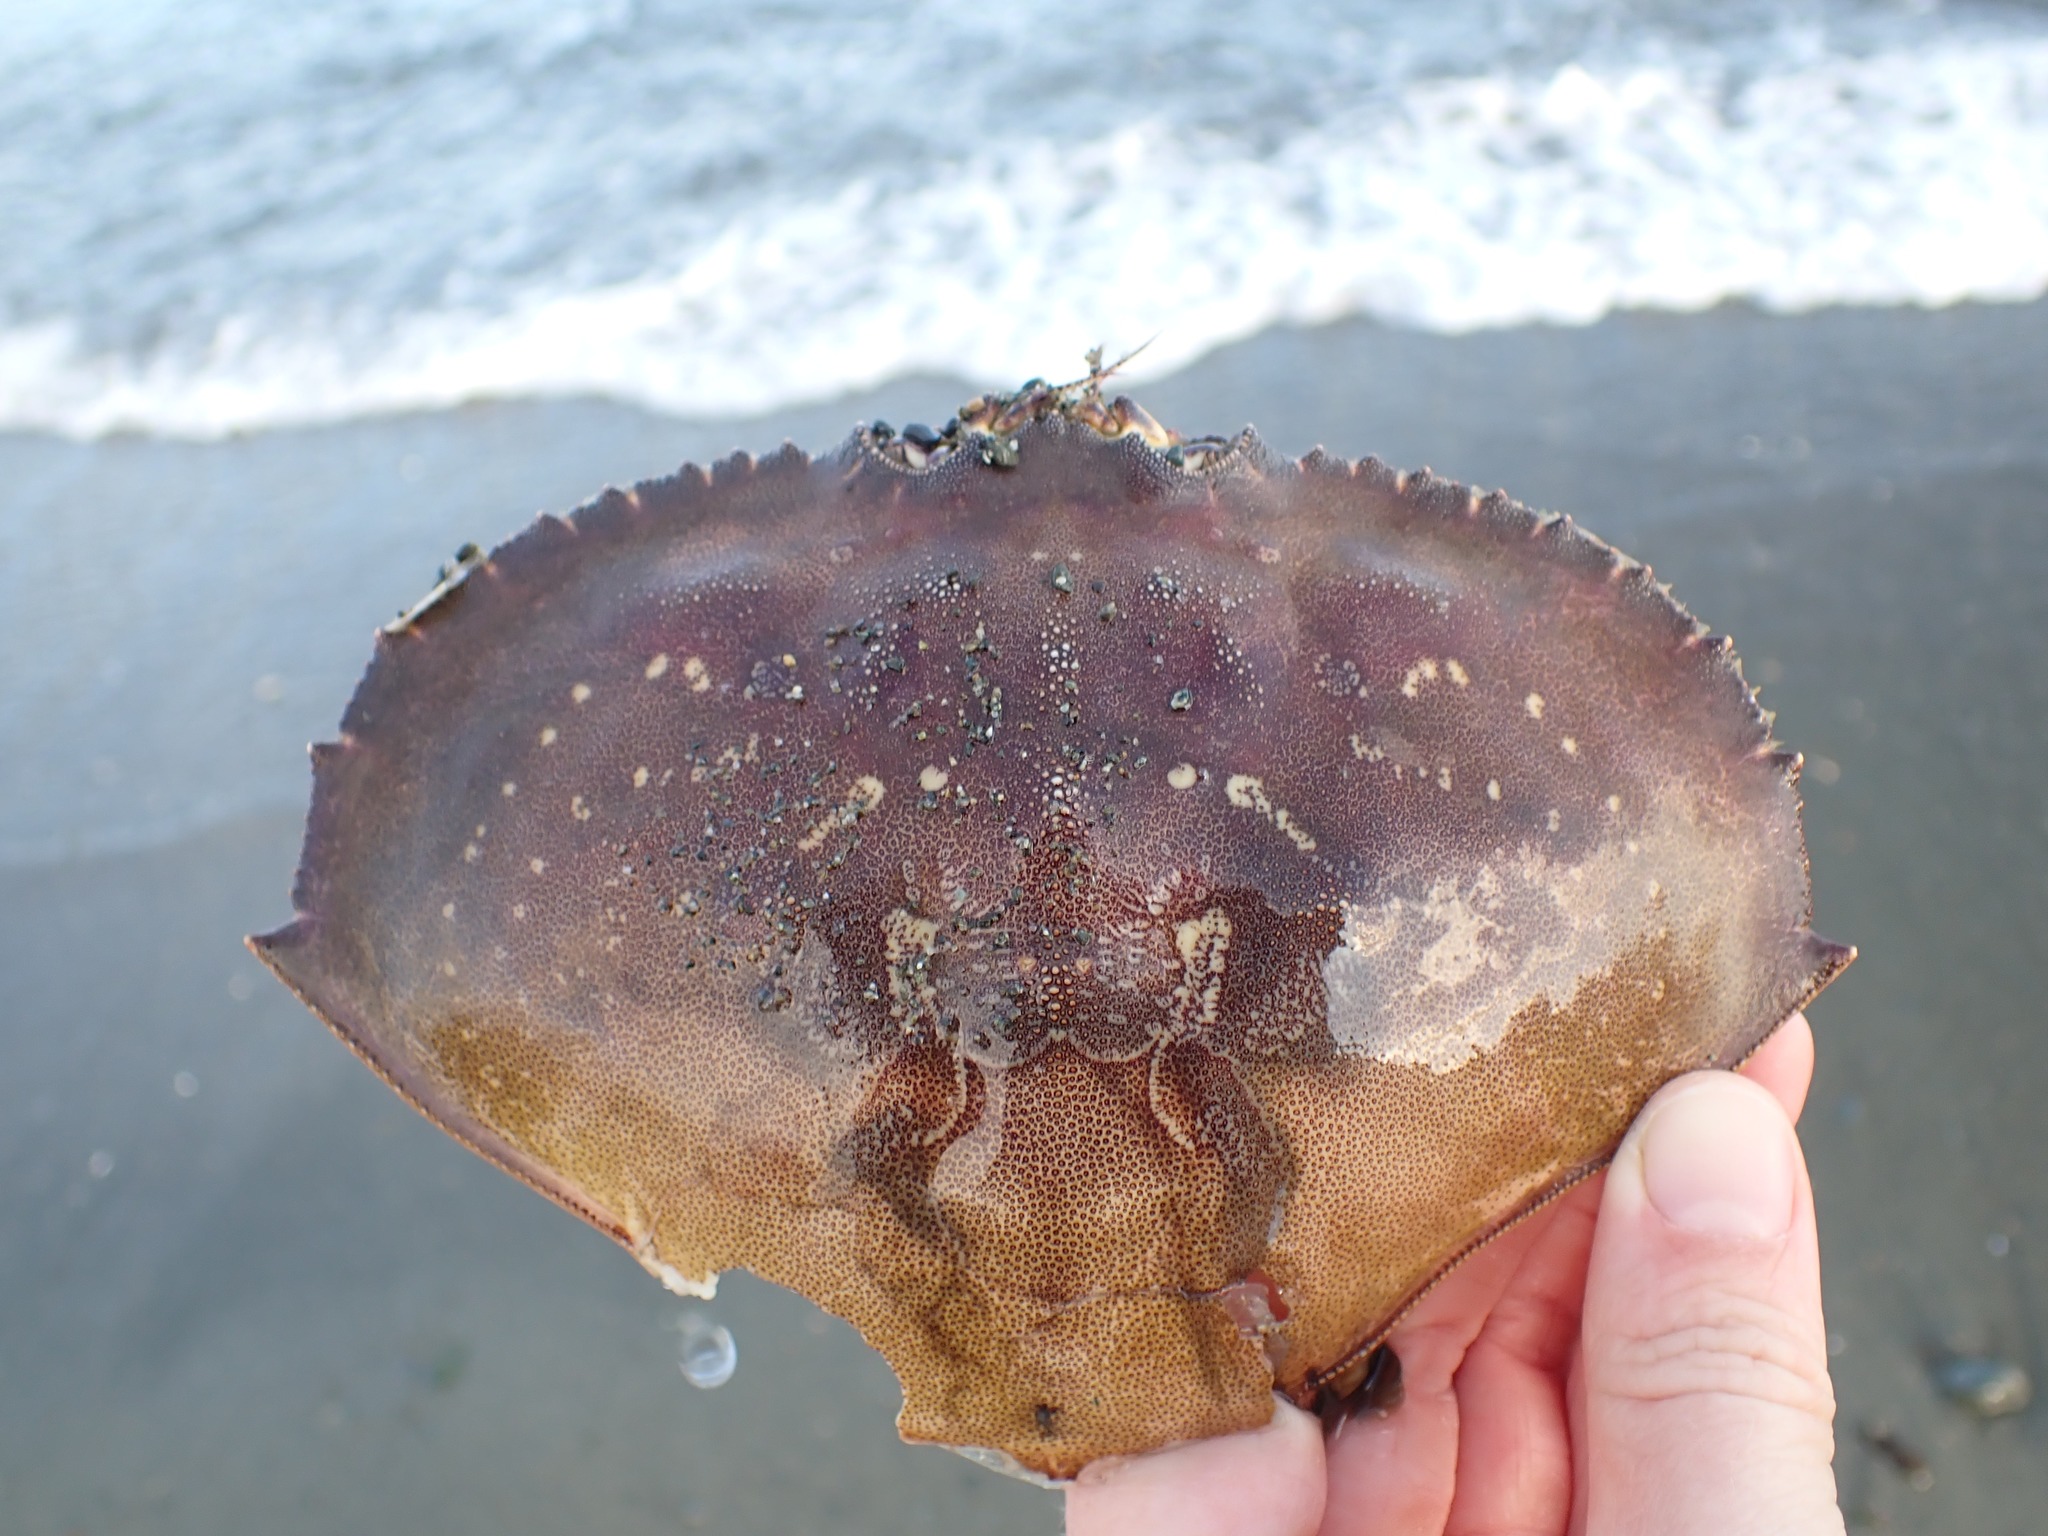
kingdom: Animalia
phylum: Arthropoda
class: Malacostraca
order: Decapoda
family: Cancridae
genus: Metacarcinus
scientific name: Metacarcinus magister
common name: Californian crab
